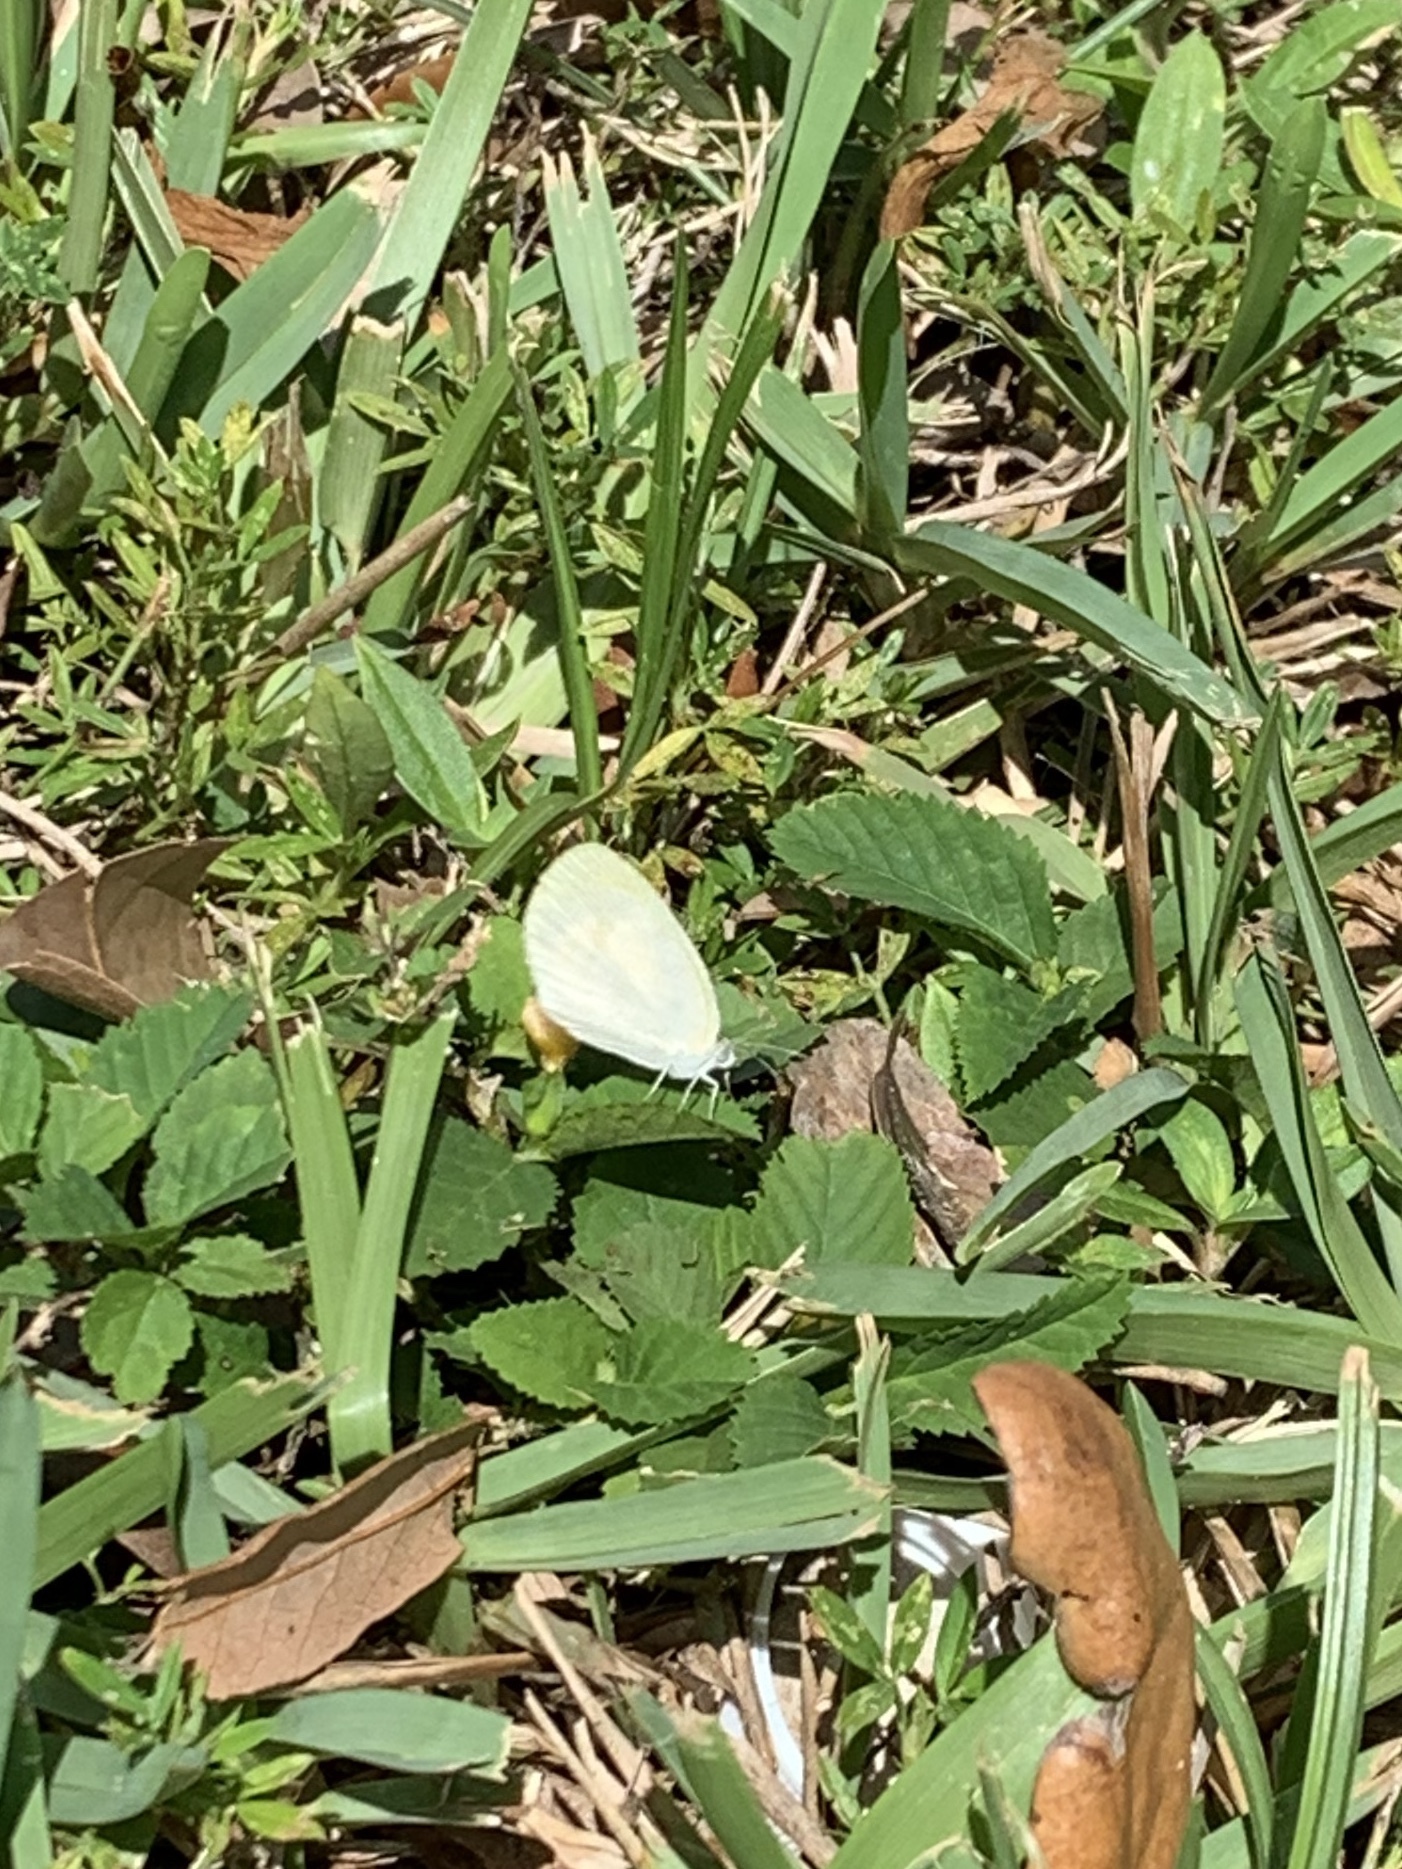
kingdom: Animalia
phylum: Arthropoda
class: Insecta
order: Lepidoptera
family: Pieridae
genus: Eurema
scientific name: Eurema daira
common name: Barred sulphur
